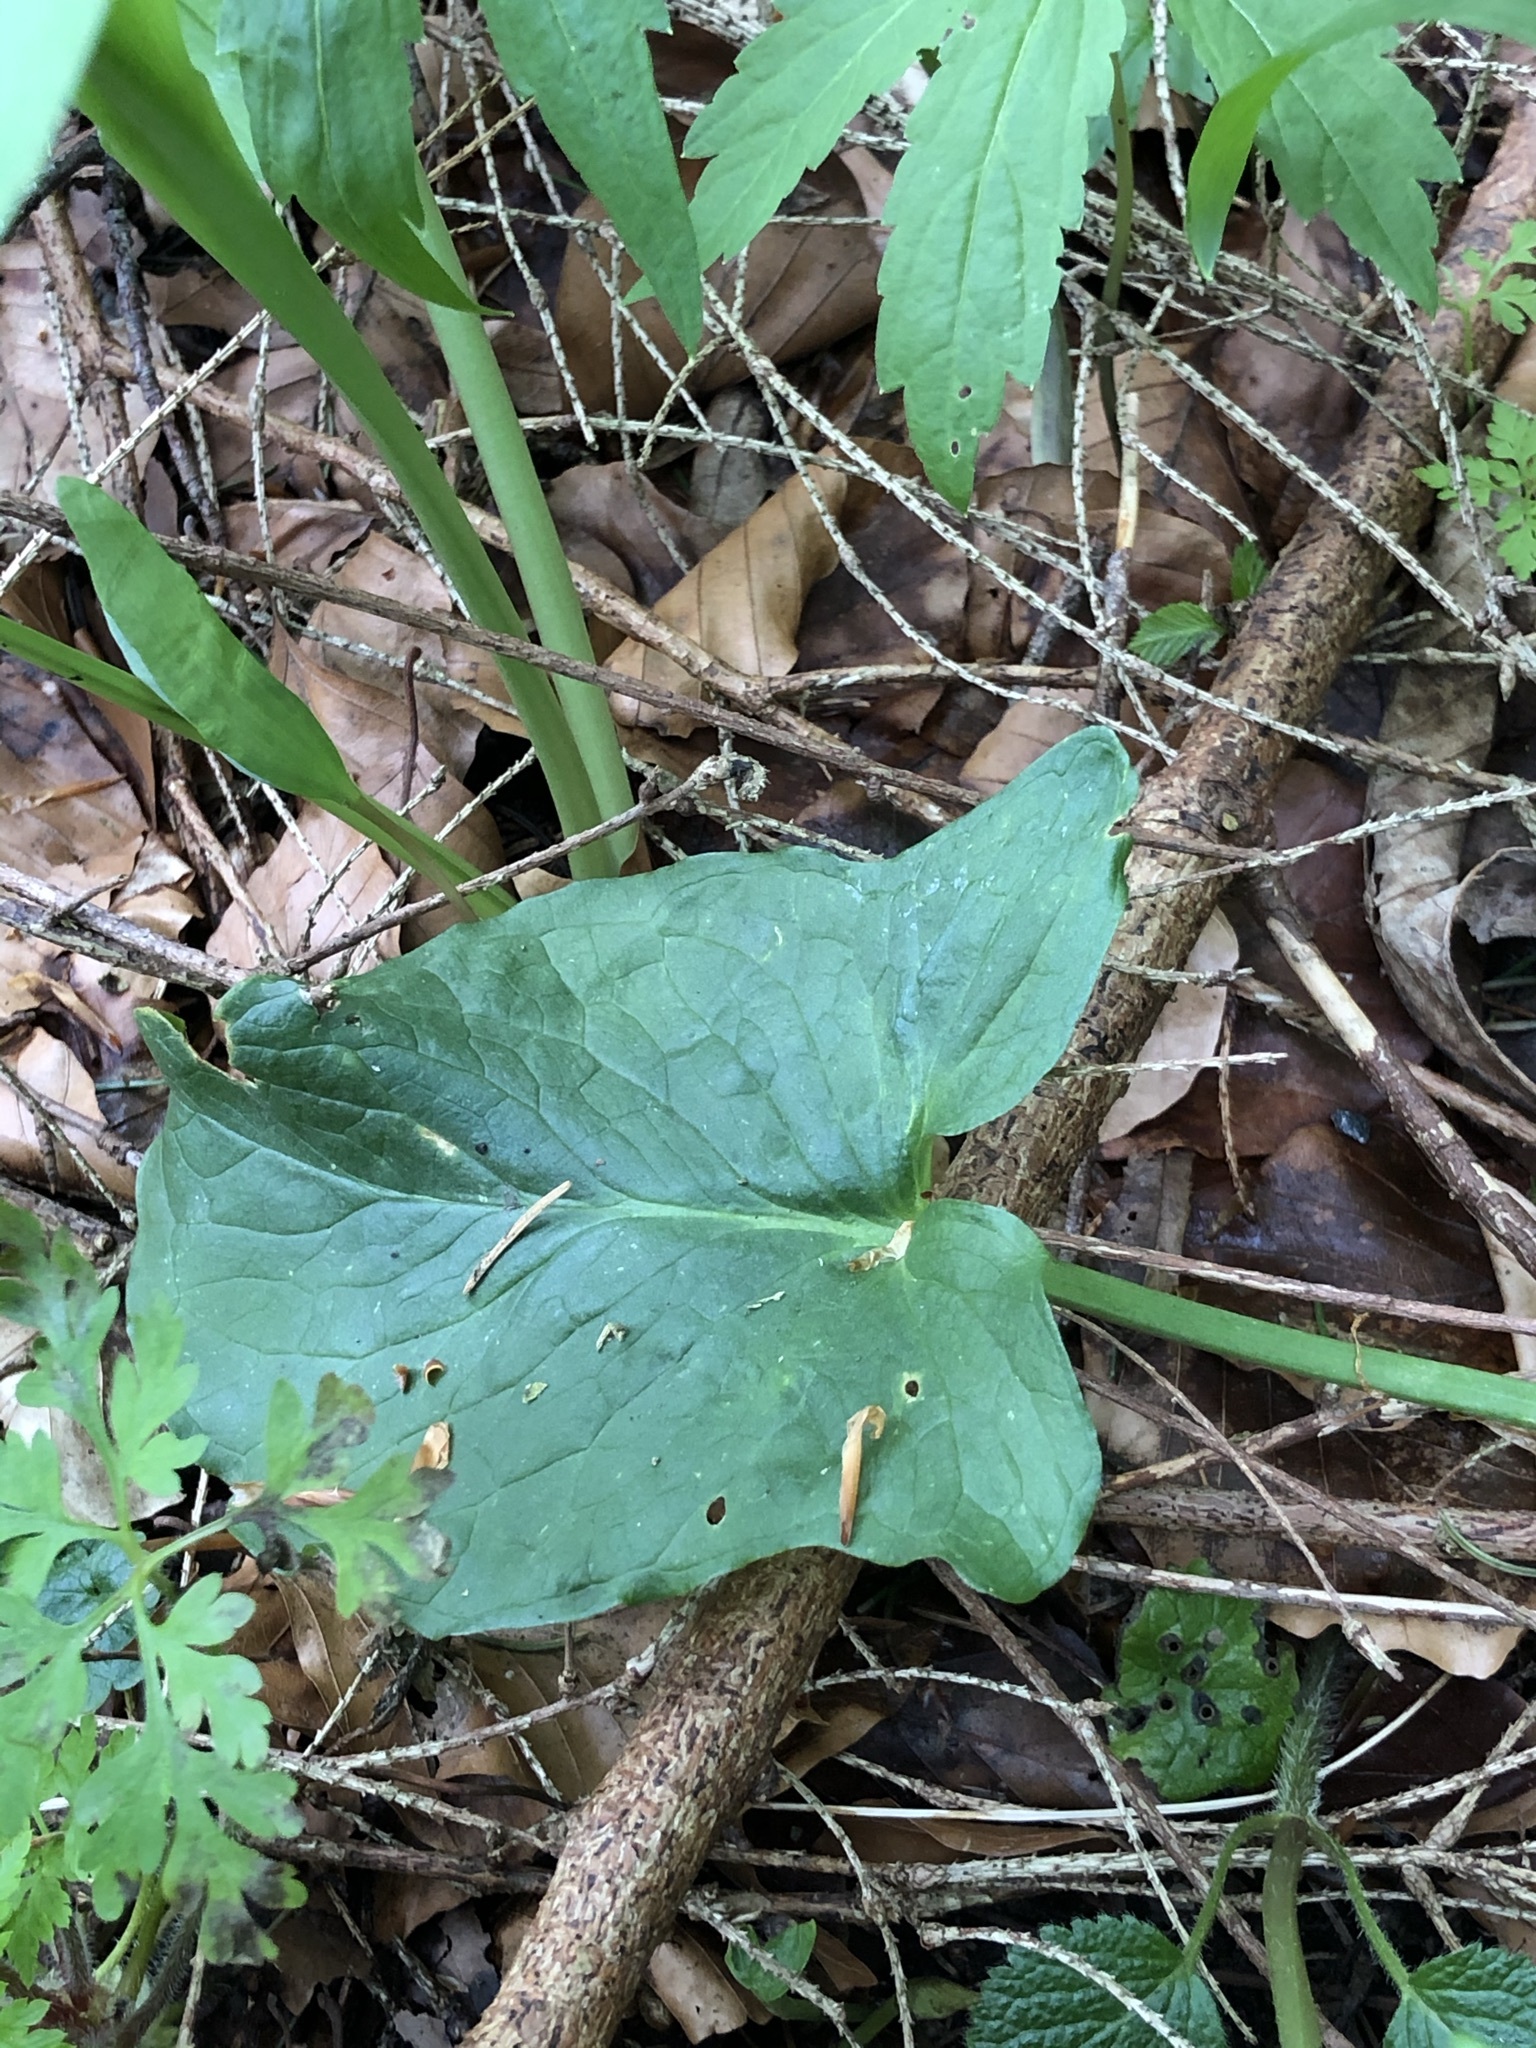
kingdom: Plantae
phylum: Tracheophyta
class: Liliopsida
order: Alismatales
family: Araceae
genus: Arum
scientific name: Arum maculatum
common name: Lords-and-ladies
